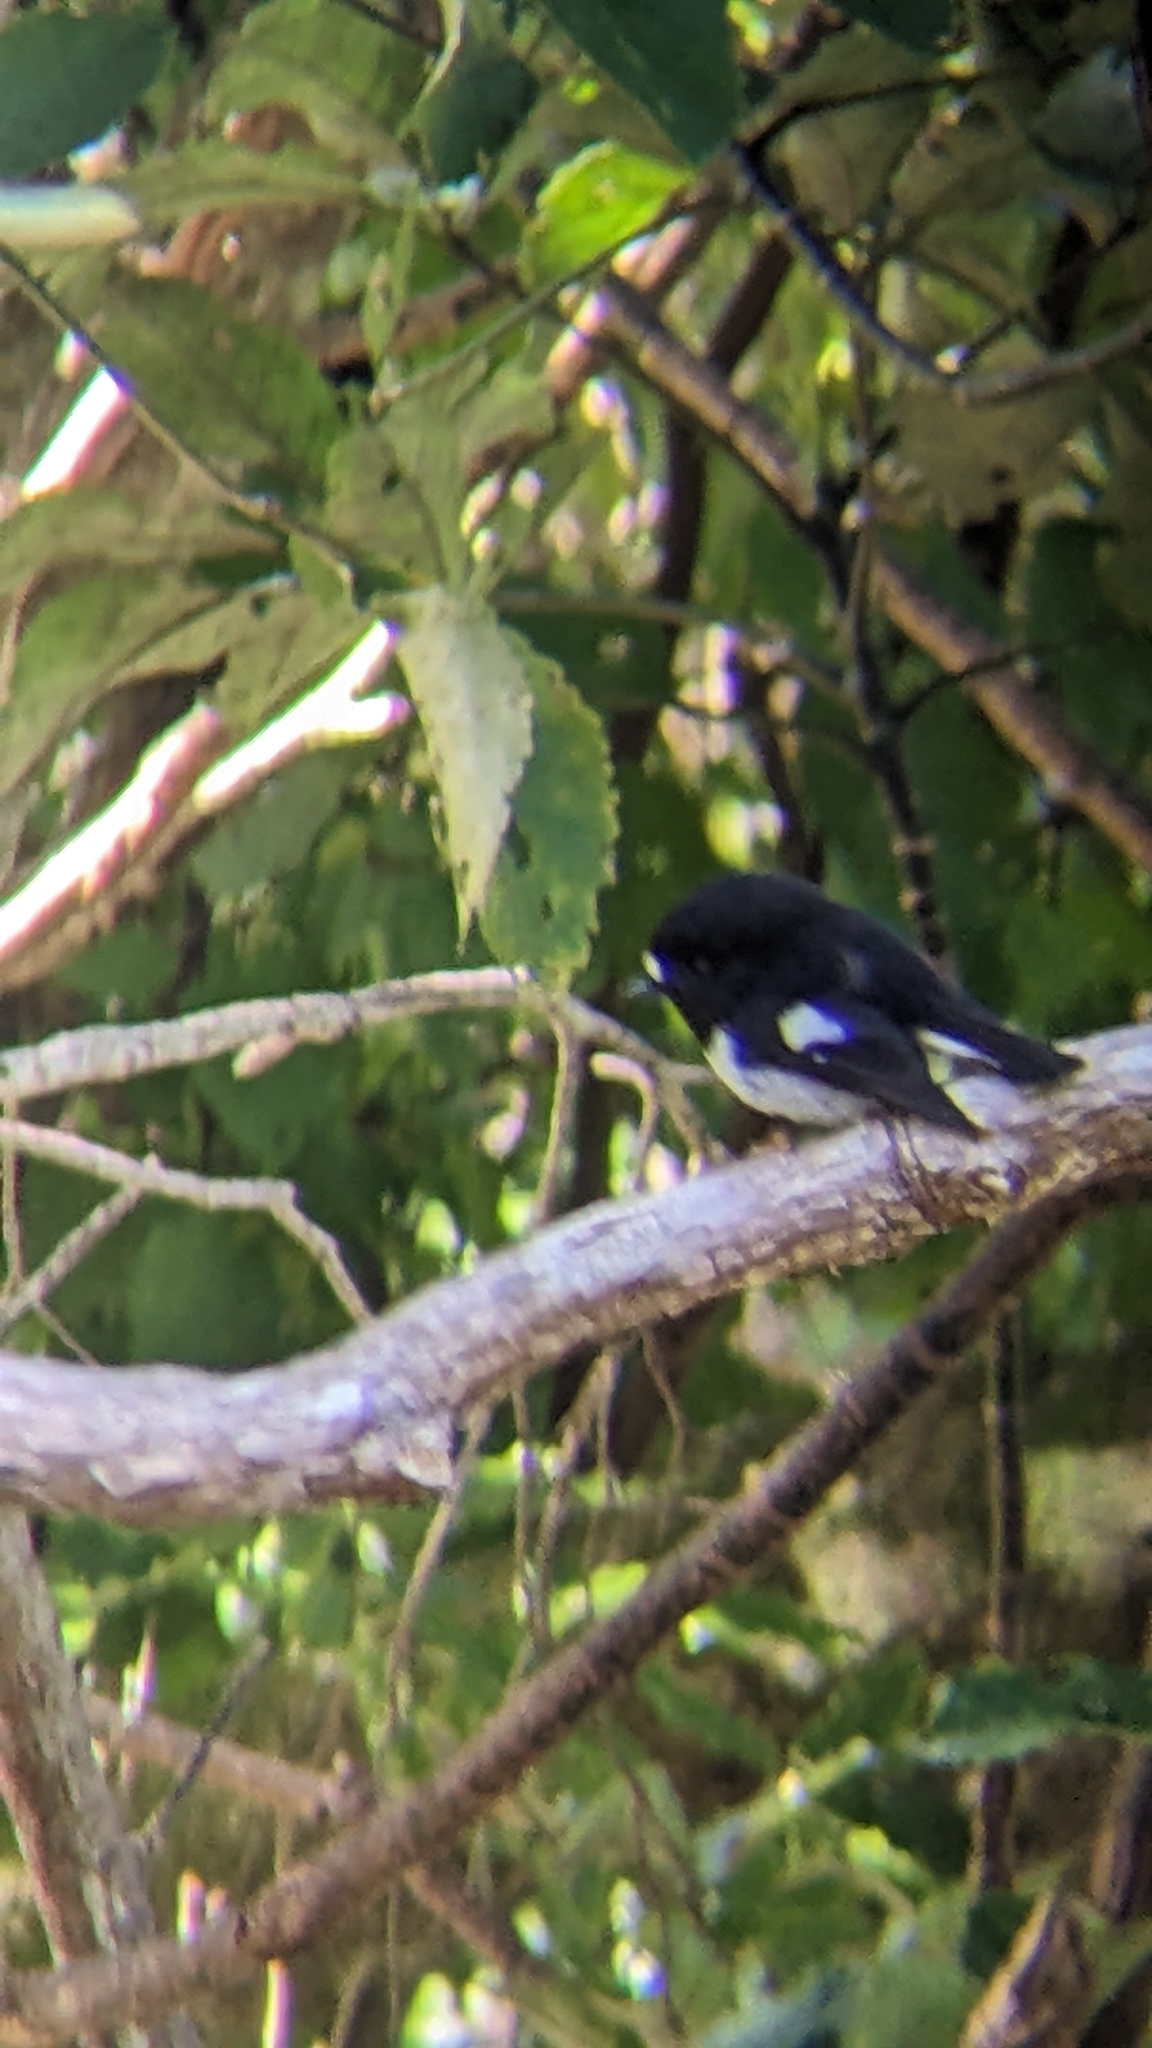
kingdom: Animalia
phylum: Chordata
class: Aves
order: Passeriformes
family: Petroicidae
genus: Petroica
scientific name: Petroica macrocephala
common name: Tomtit
